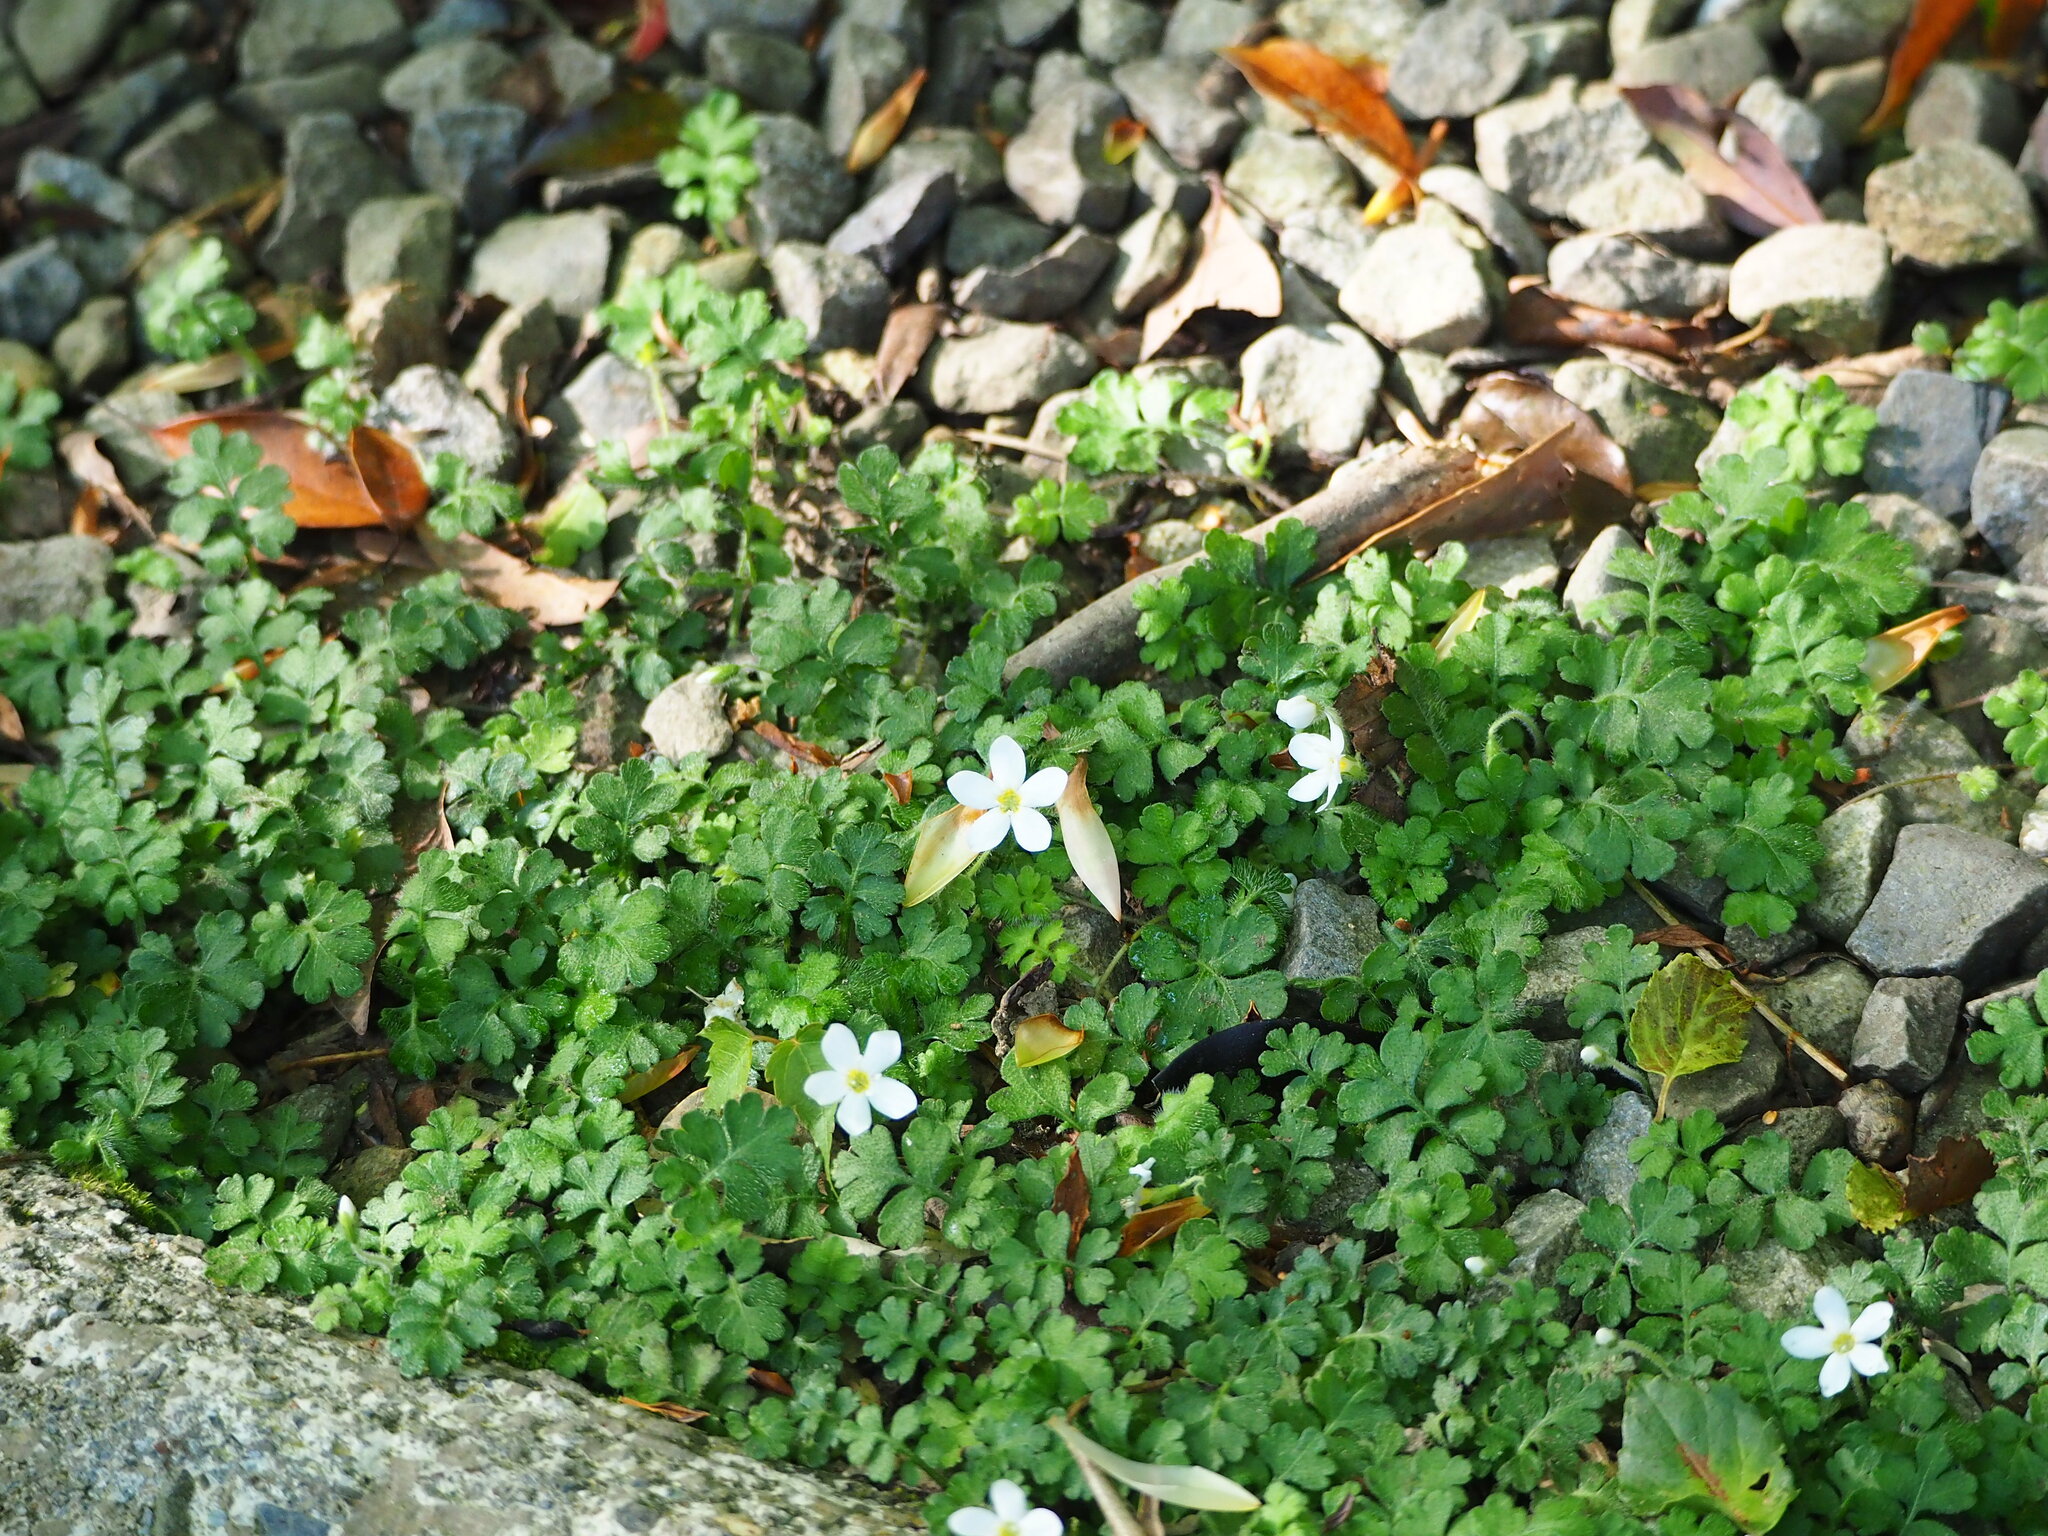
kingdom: Plantae
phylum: Tracheophyta
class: Magnoliopsida
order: Lamiales
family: Plantaginaceae
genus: Ellisiophyllum
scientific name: Ellisiophyllum pinnatum
